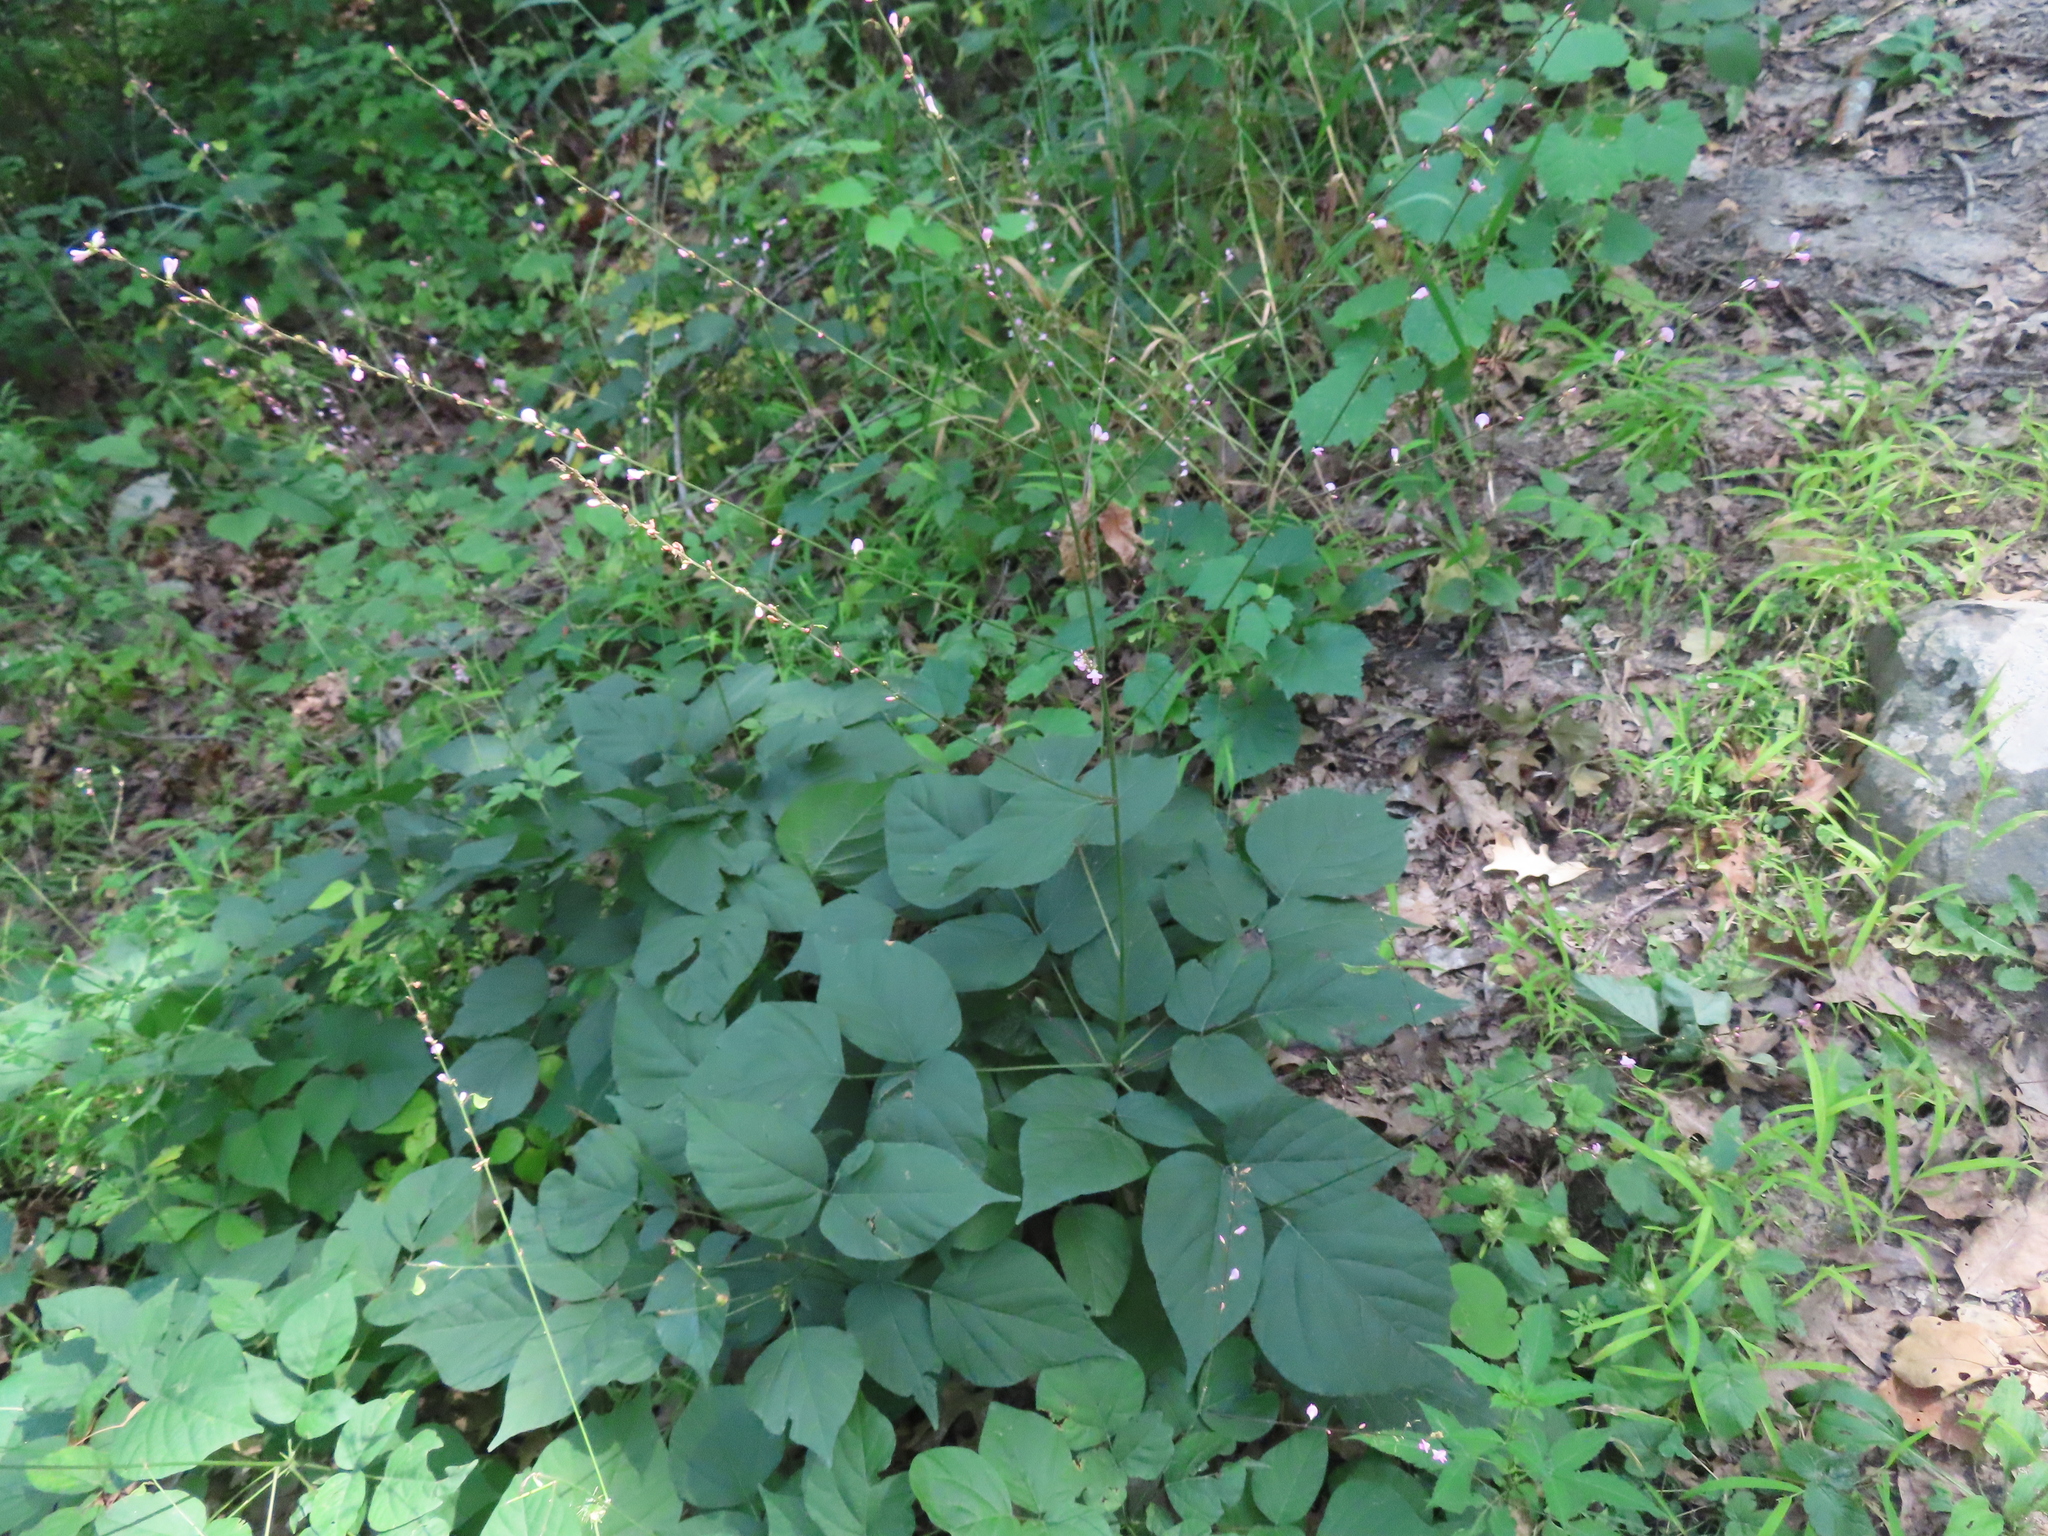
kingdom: Plantae
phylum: Tracheophyta
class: Magnoliopsida
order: Fabales
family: Fabaceae
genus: Hylodesmum
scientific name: Hylodesmum glutinosum
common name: Clustered-leaved tick-trefoil
